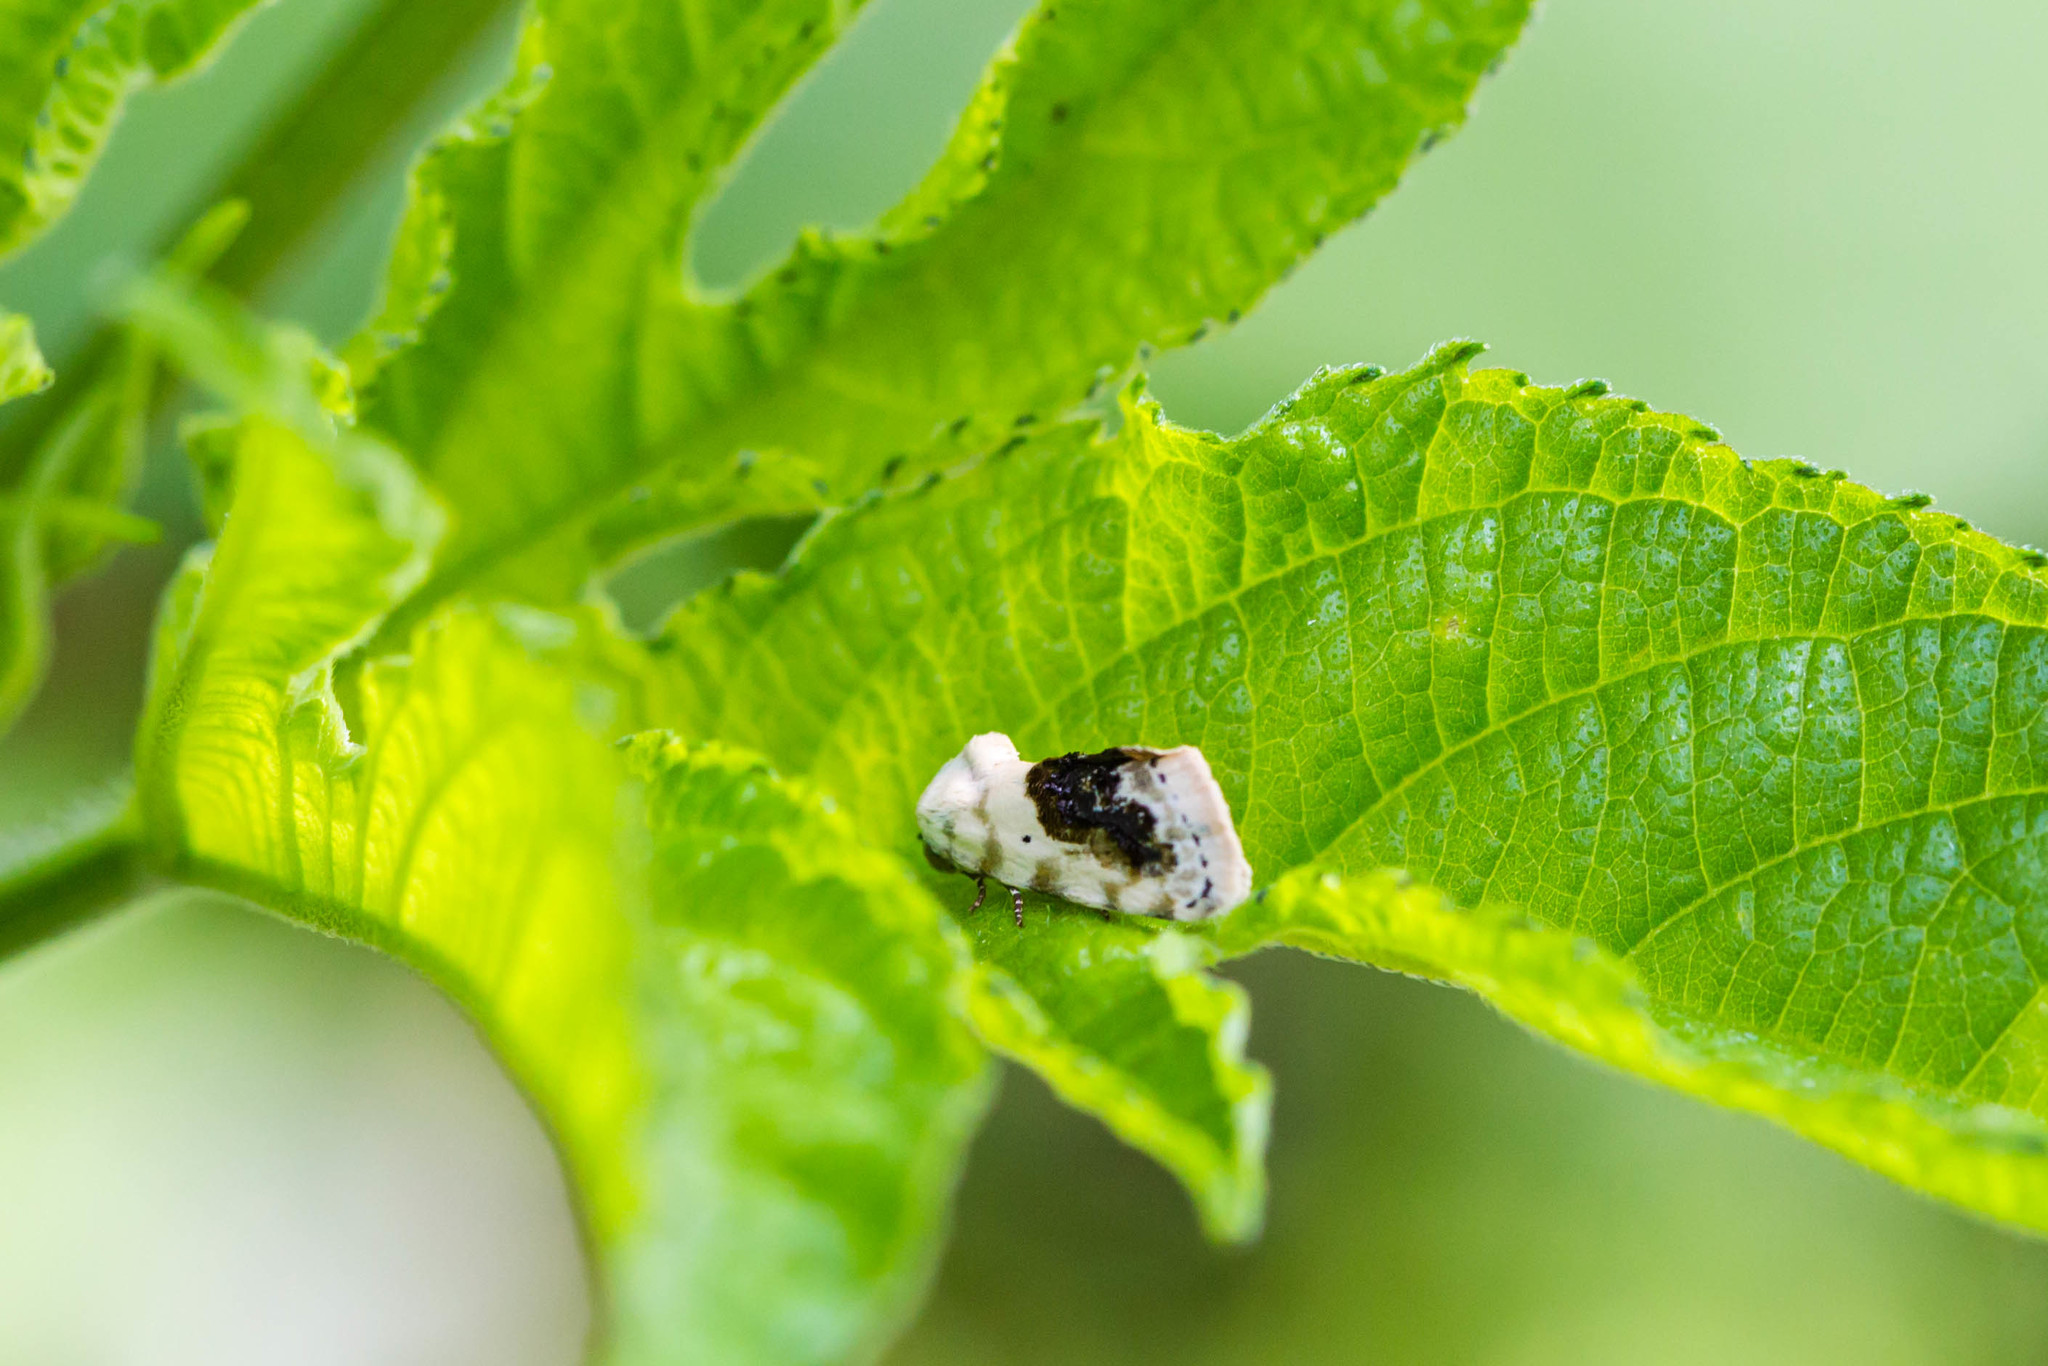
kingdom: Animalia
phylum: Arthropoda
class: Insecta
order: Lepidoptera
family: Noctuidae
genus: Acontia
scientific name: Acontia erastrioides
